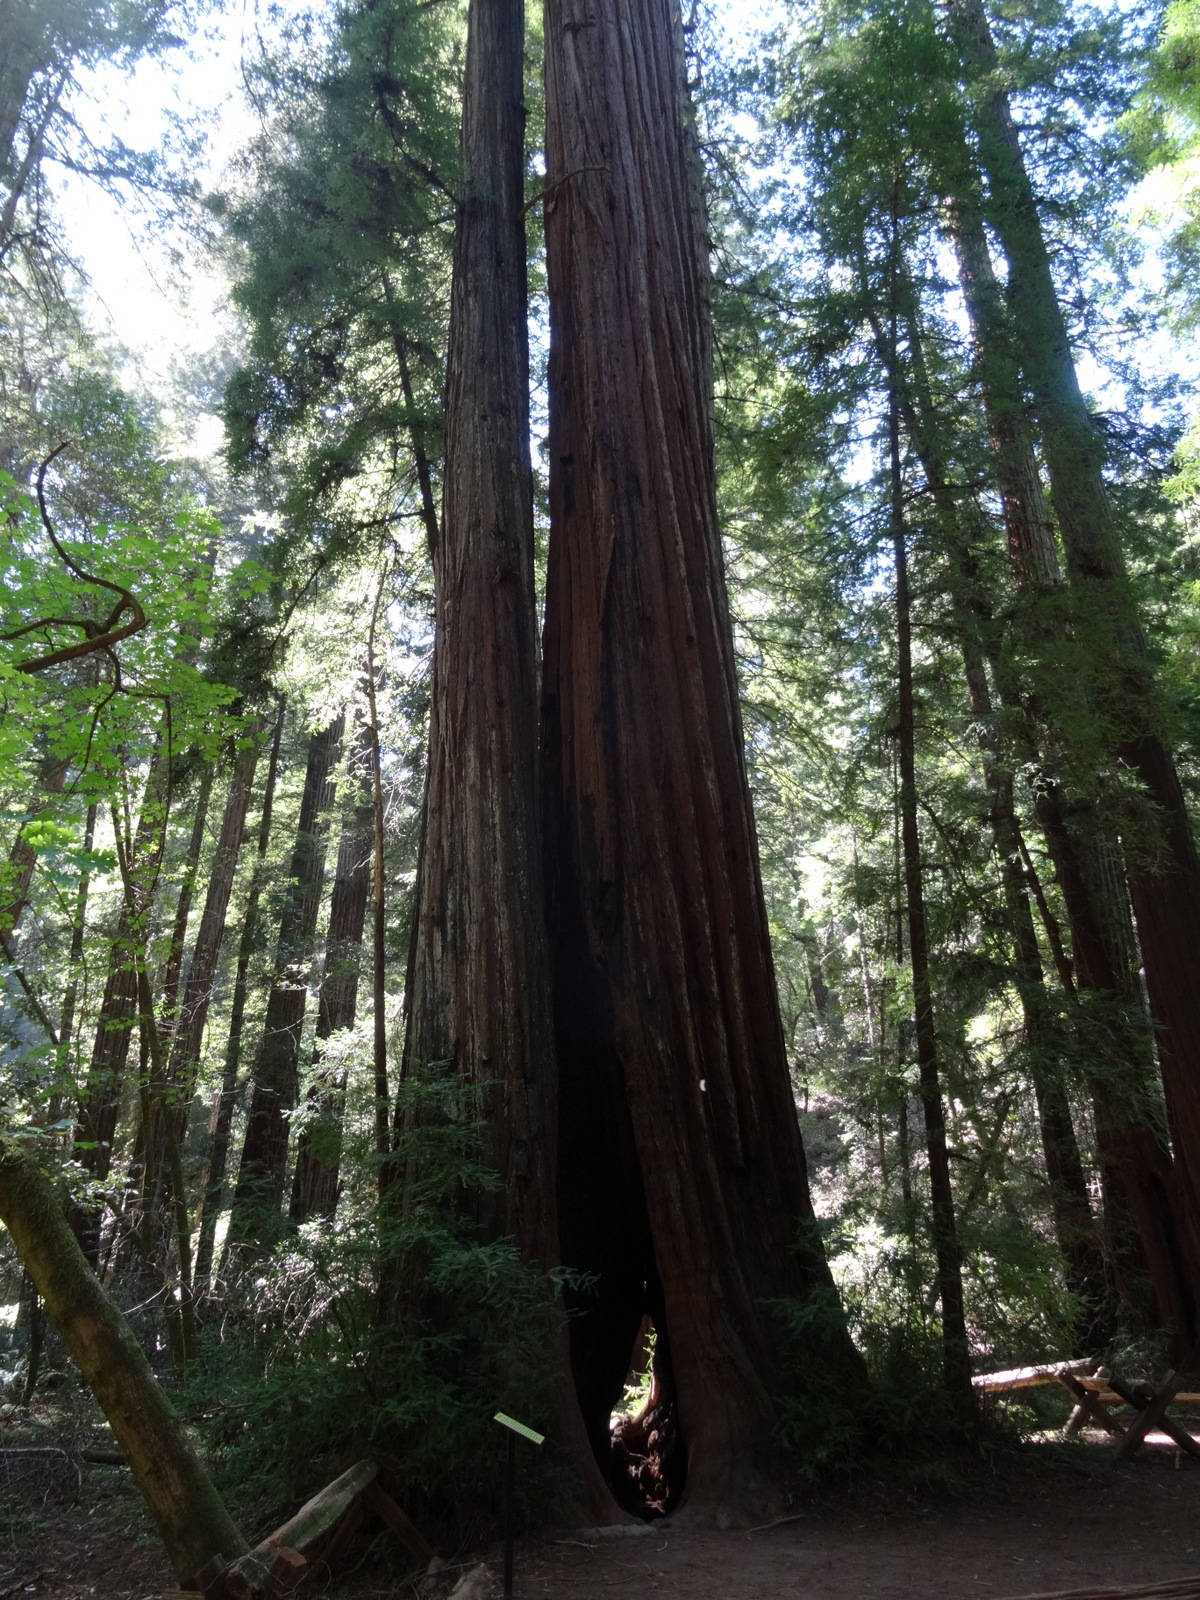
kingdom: Plantae
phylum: Tracheophyta
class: Pinopsida
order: Pinales
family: Cupressaceae
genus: Sequoia
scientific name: Sequoia sempervirens
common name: Coast redwood
